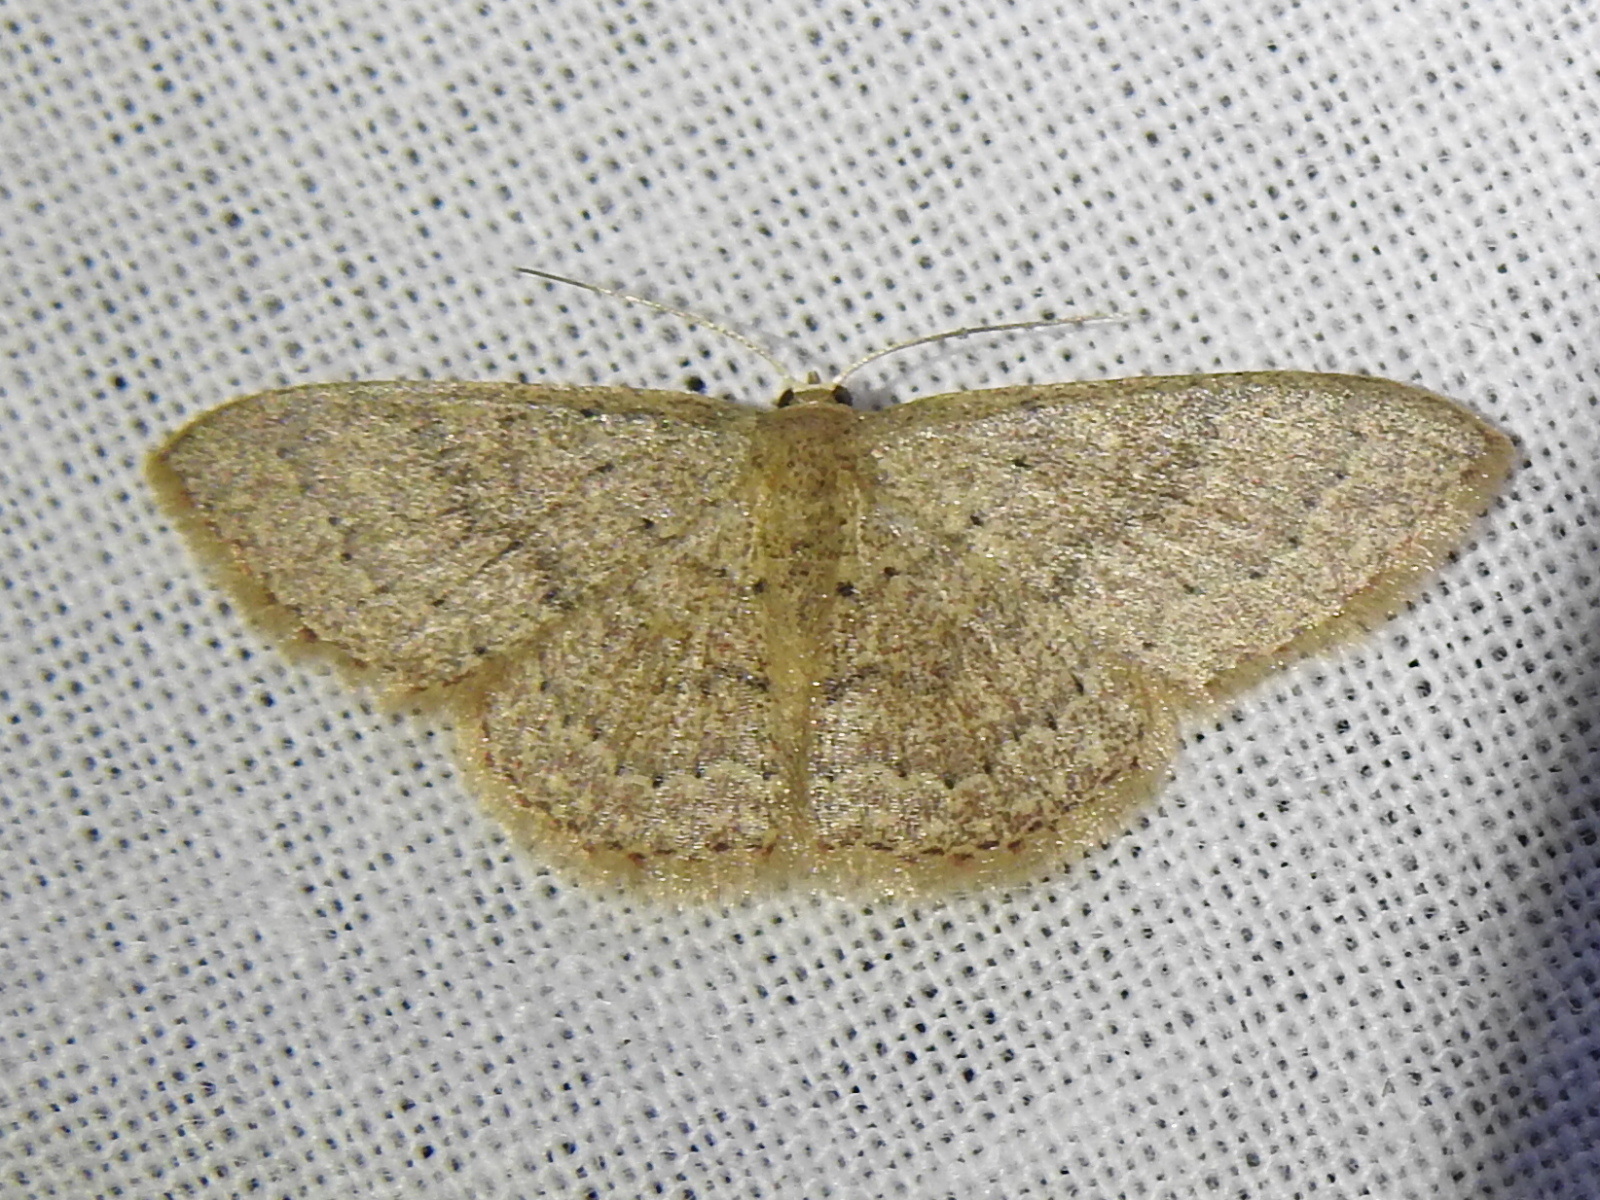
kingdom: Animalia
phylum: Arthropoda
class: Insecta
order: Lepidoptera
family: Geometridae
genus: Pleuroprucha
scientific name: Pleuroprucha insulsaria
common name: Common tan wave
